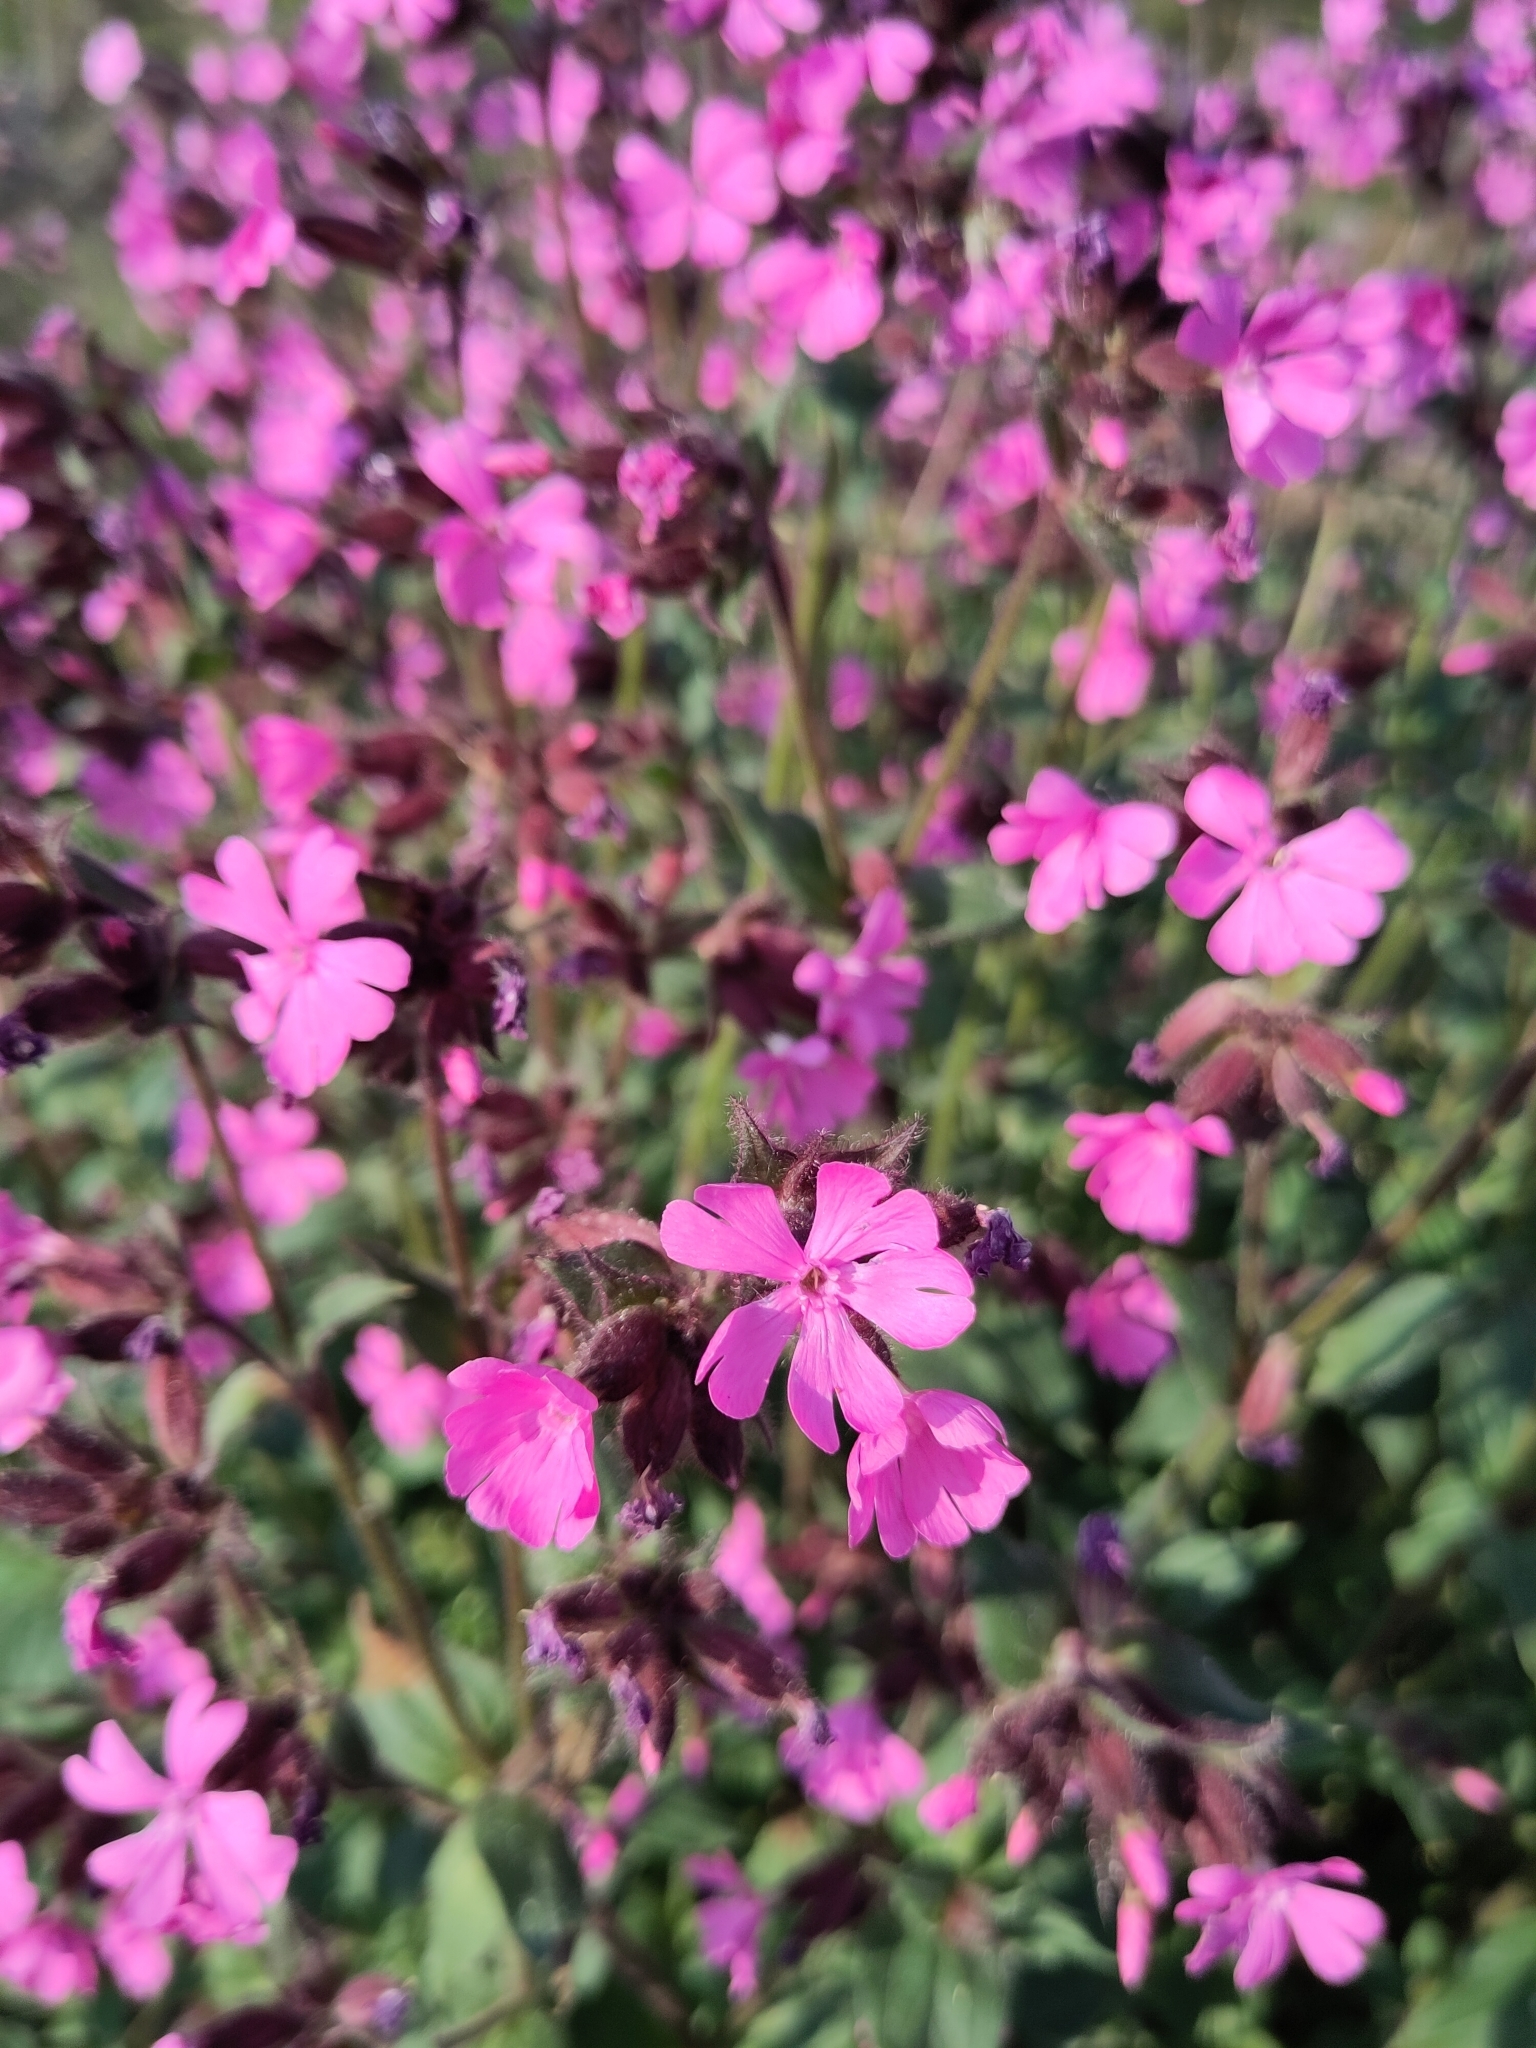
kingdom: Plantae
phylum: Tracheophyta
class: Magnoliopsida
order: Caryophyllales
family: Caryophyllaceae
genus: Silene
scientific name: Silene dioica
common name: Red campion
